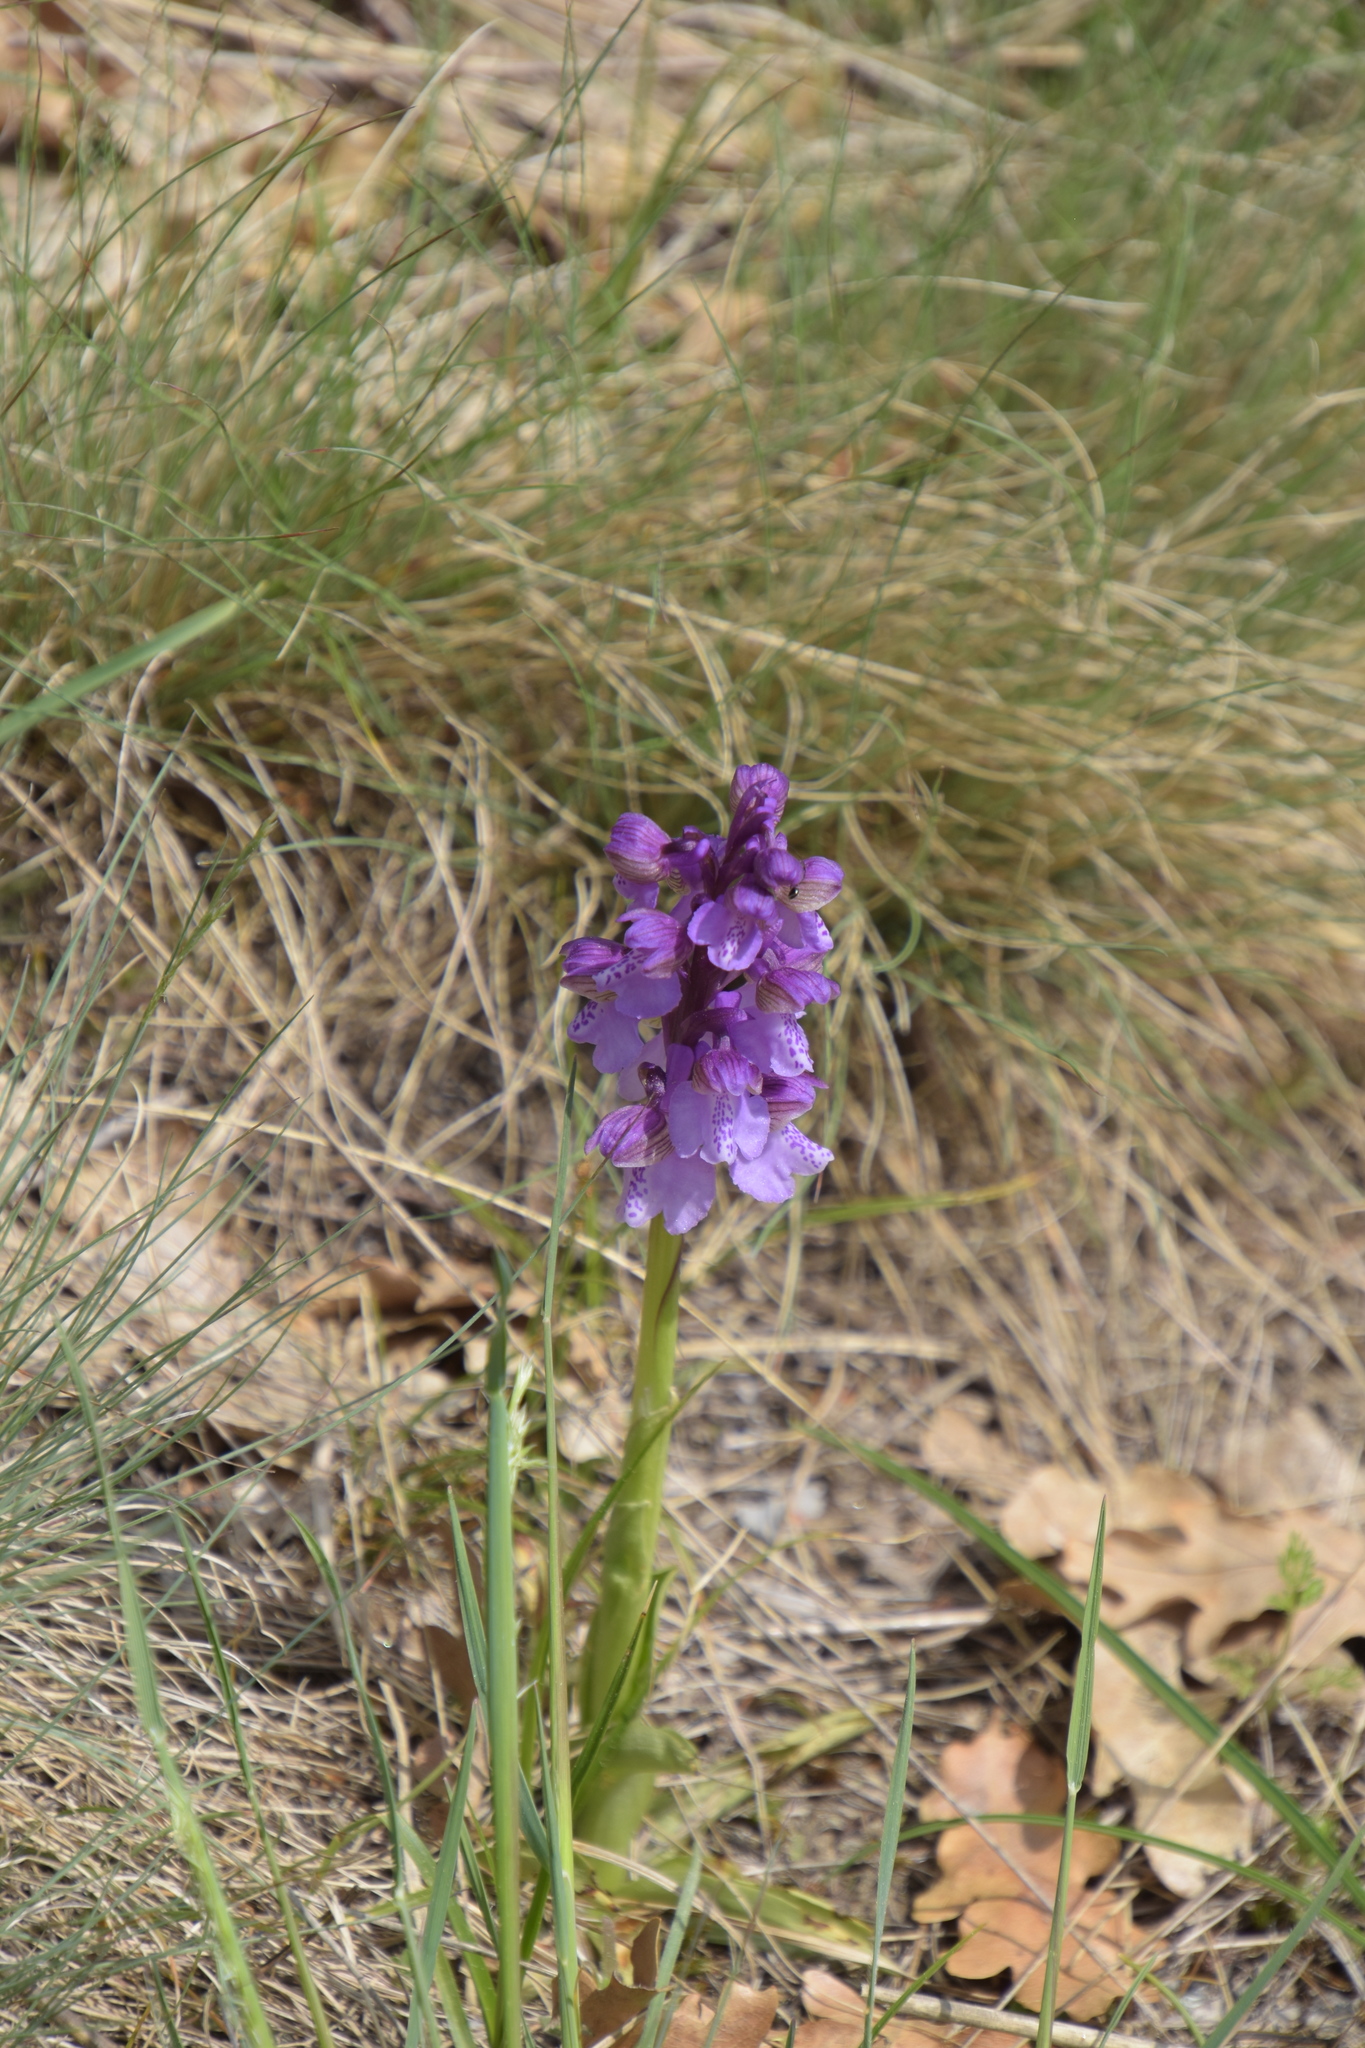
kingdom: Plantae
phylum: Tracheophyta
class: Liliopsida
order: Asparagales
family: Orchidaceae
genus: Anacamptis
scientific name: Anacamptis morio
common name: Green-winged orchid
